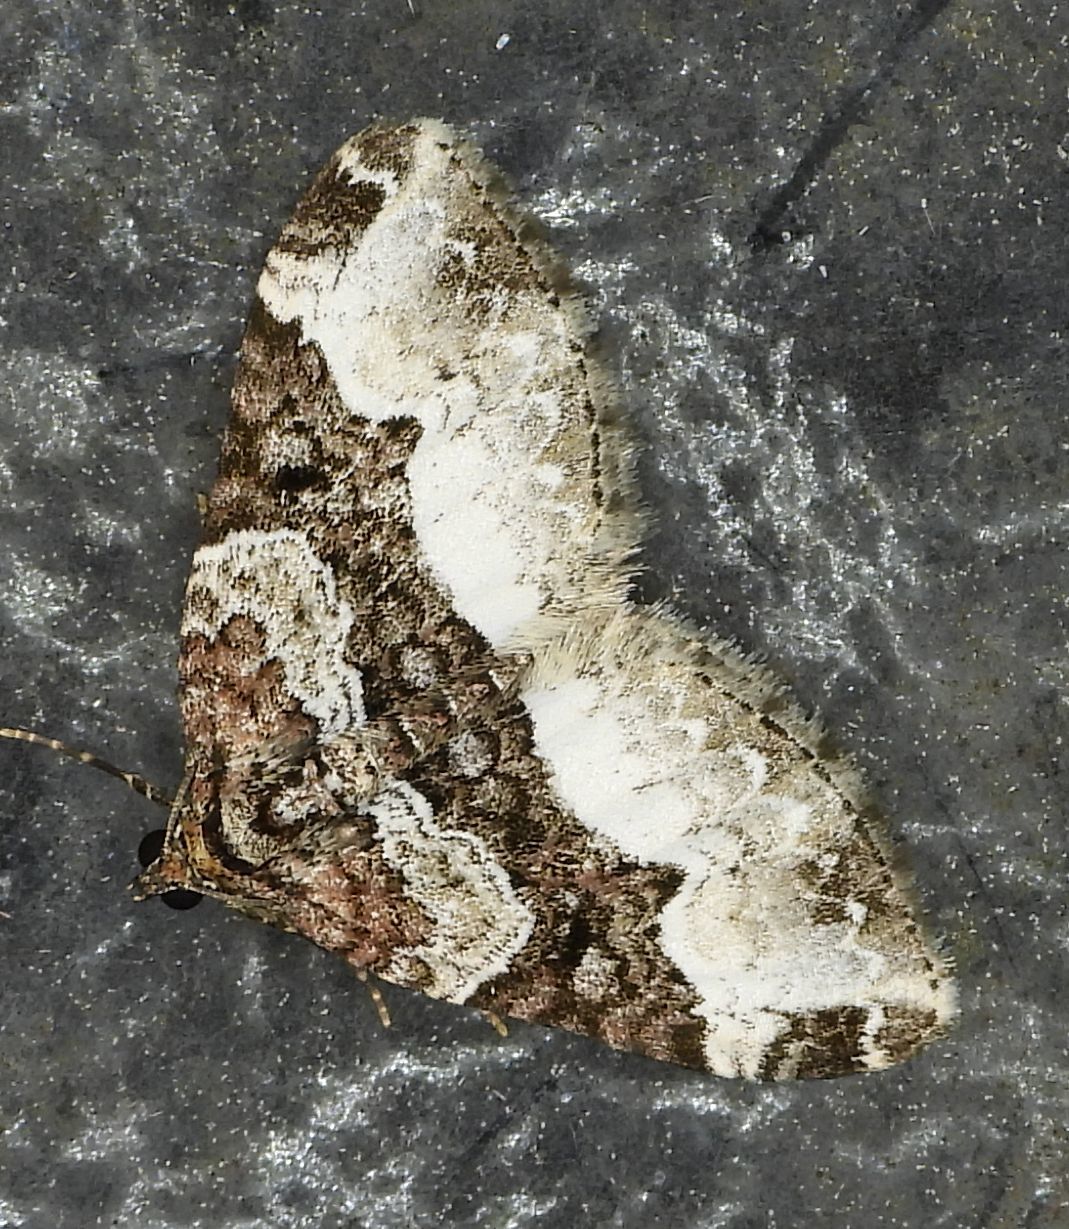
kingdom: Animalia
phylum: Arthropoda
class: Insecta
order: Lepidoptera
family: Geometridae
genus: Euphyia
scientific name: Euphyia intermediata
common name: Sharp-angled carpet
